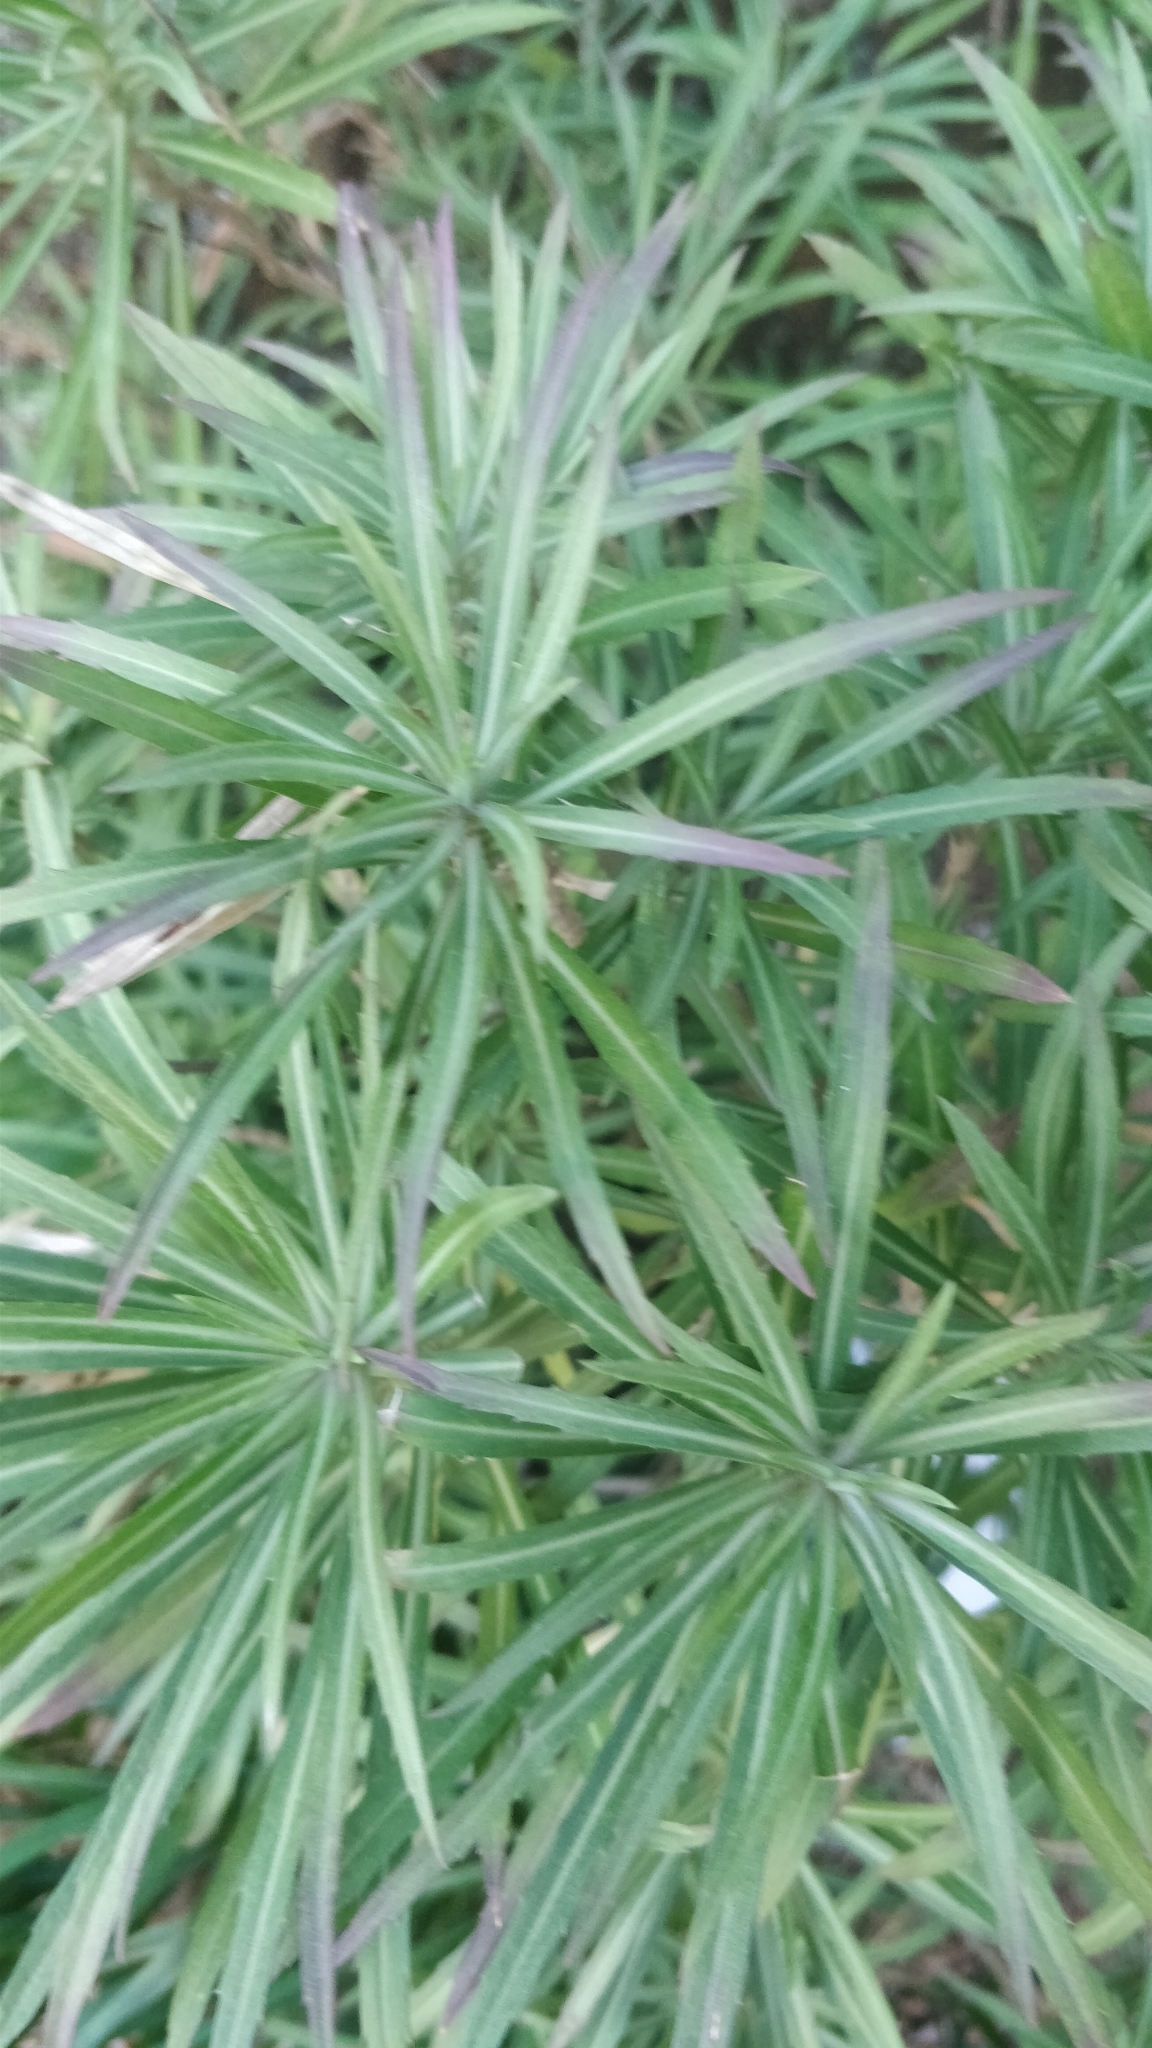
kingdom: Plantae
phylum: Tracheophyta
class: Magnoliopsida
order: Brassicales
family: Brassicaceae
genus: Erysimum
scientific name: Erysimum bicolor
